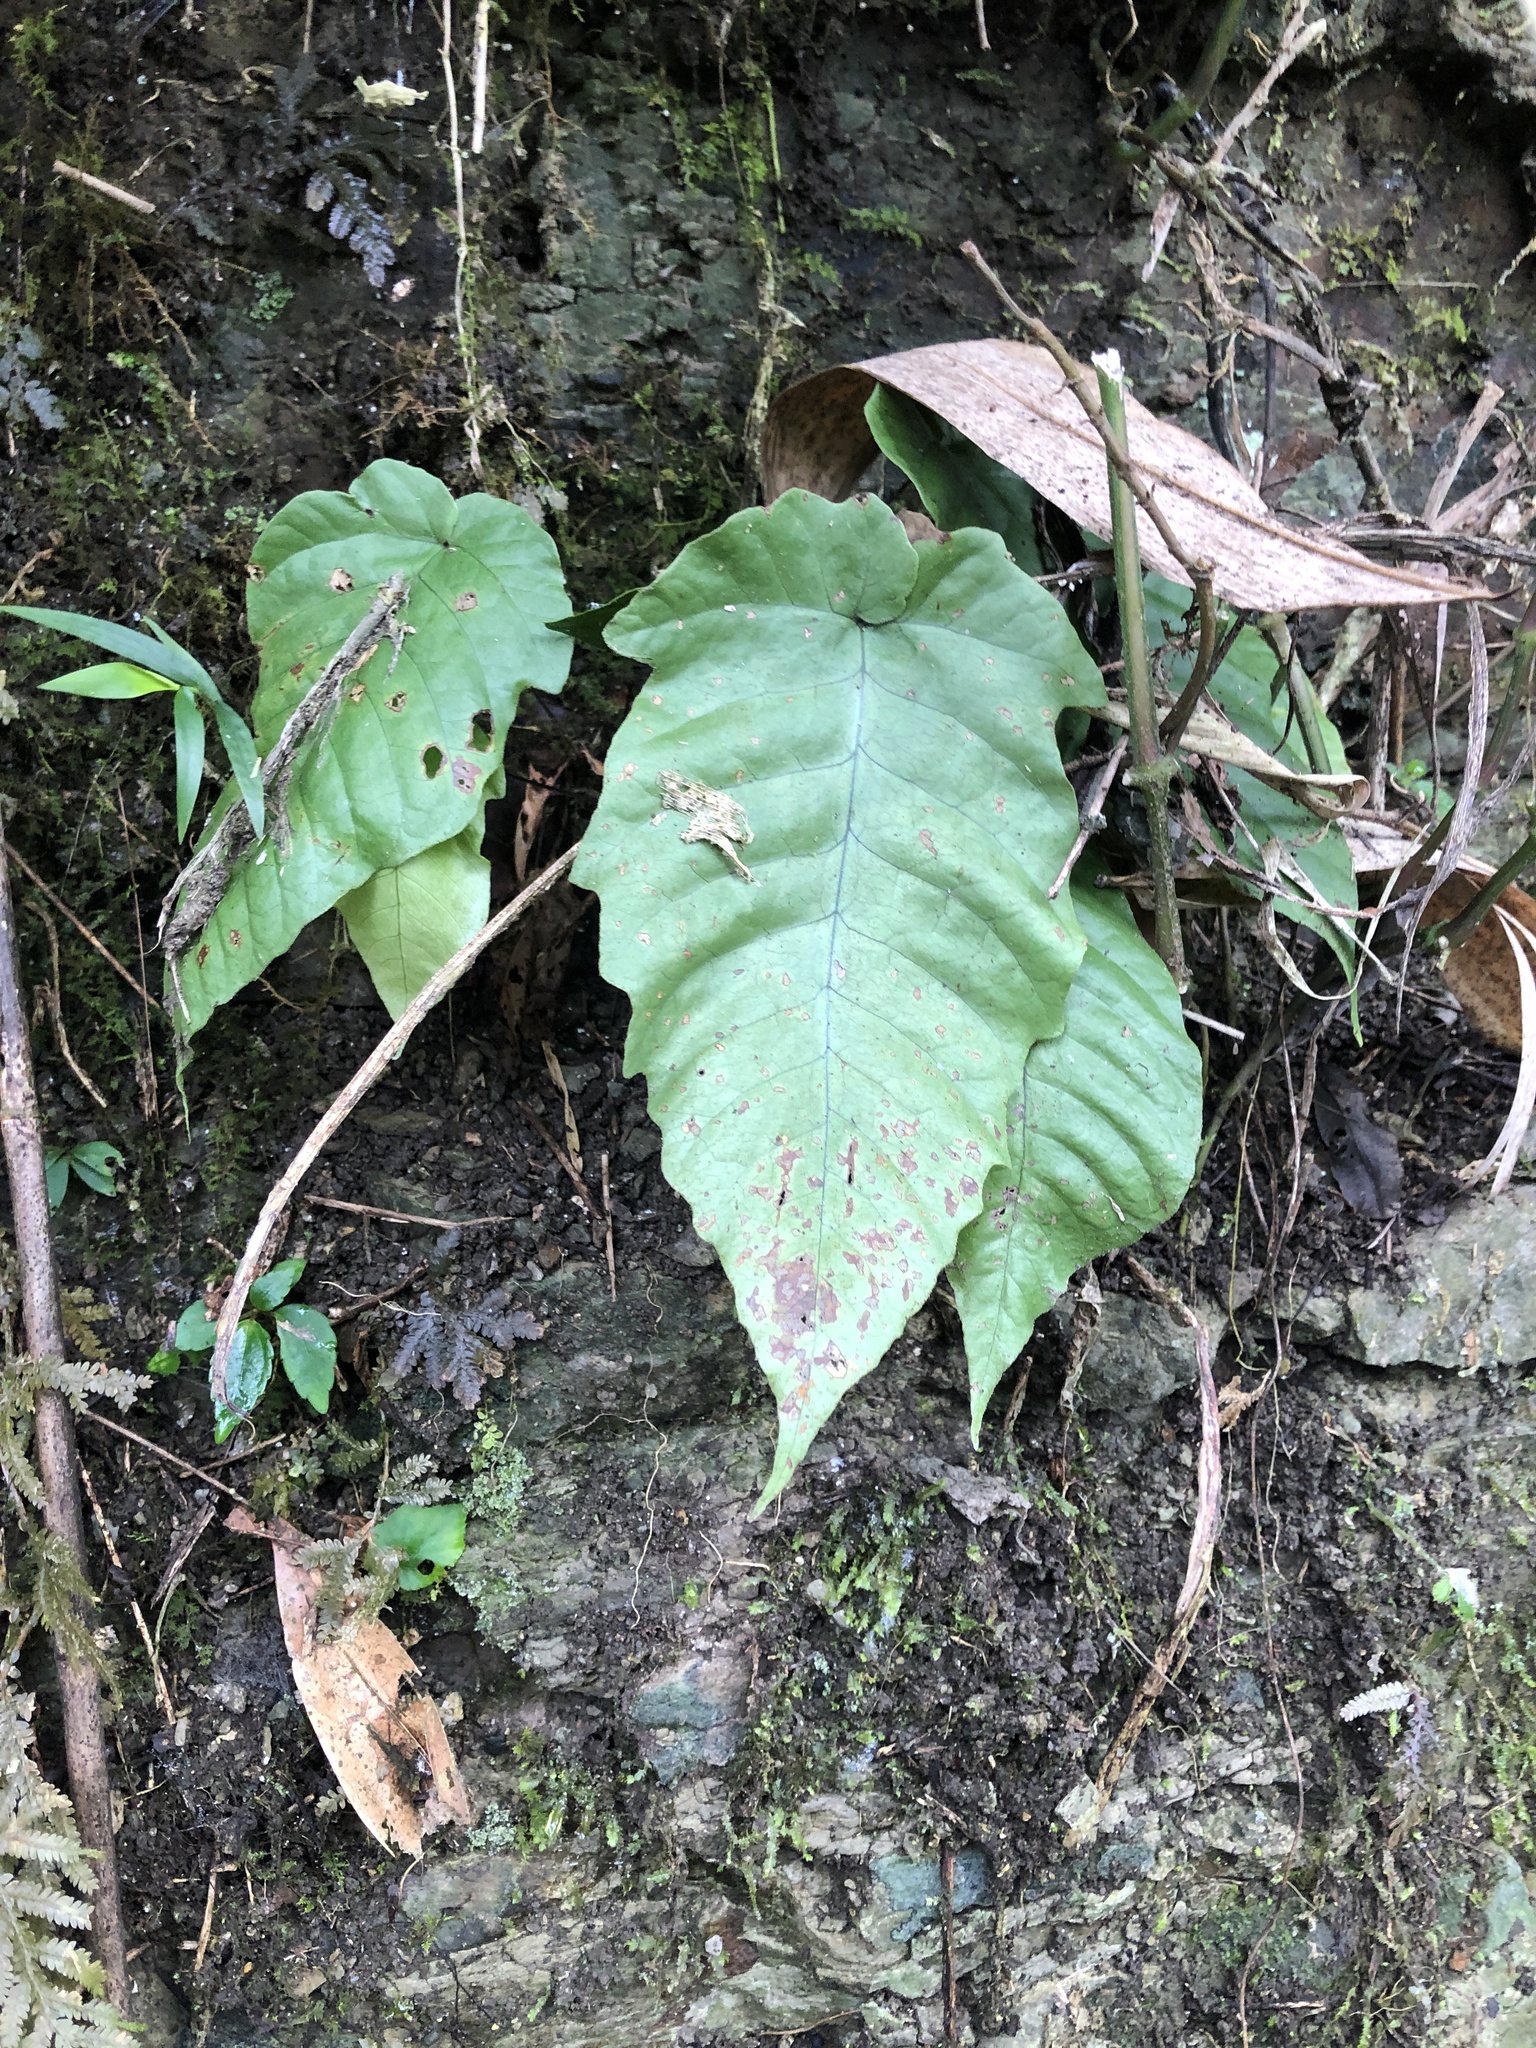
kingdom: Plantae
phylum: Tracheophyta
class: Polypodiopsida
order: Polypodiales
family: Tectariaceae
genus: Tectaria
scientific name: Tectaria polymorpha
